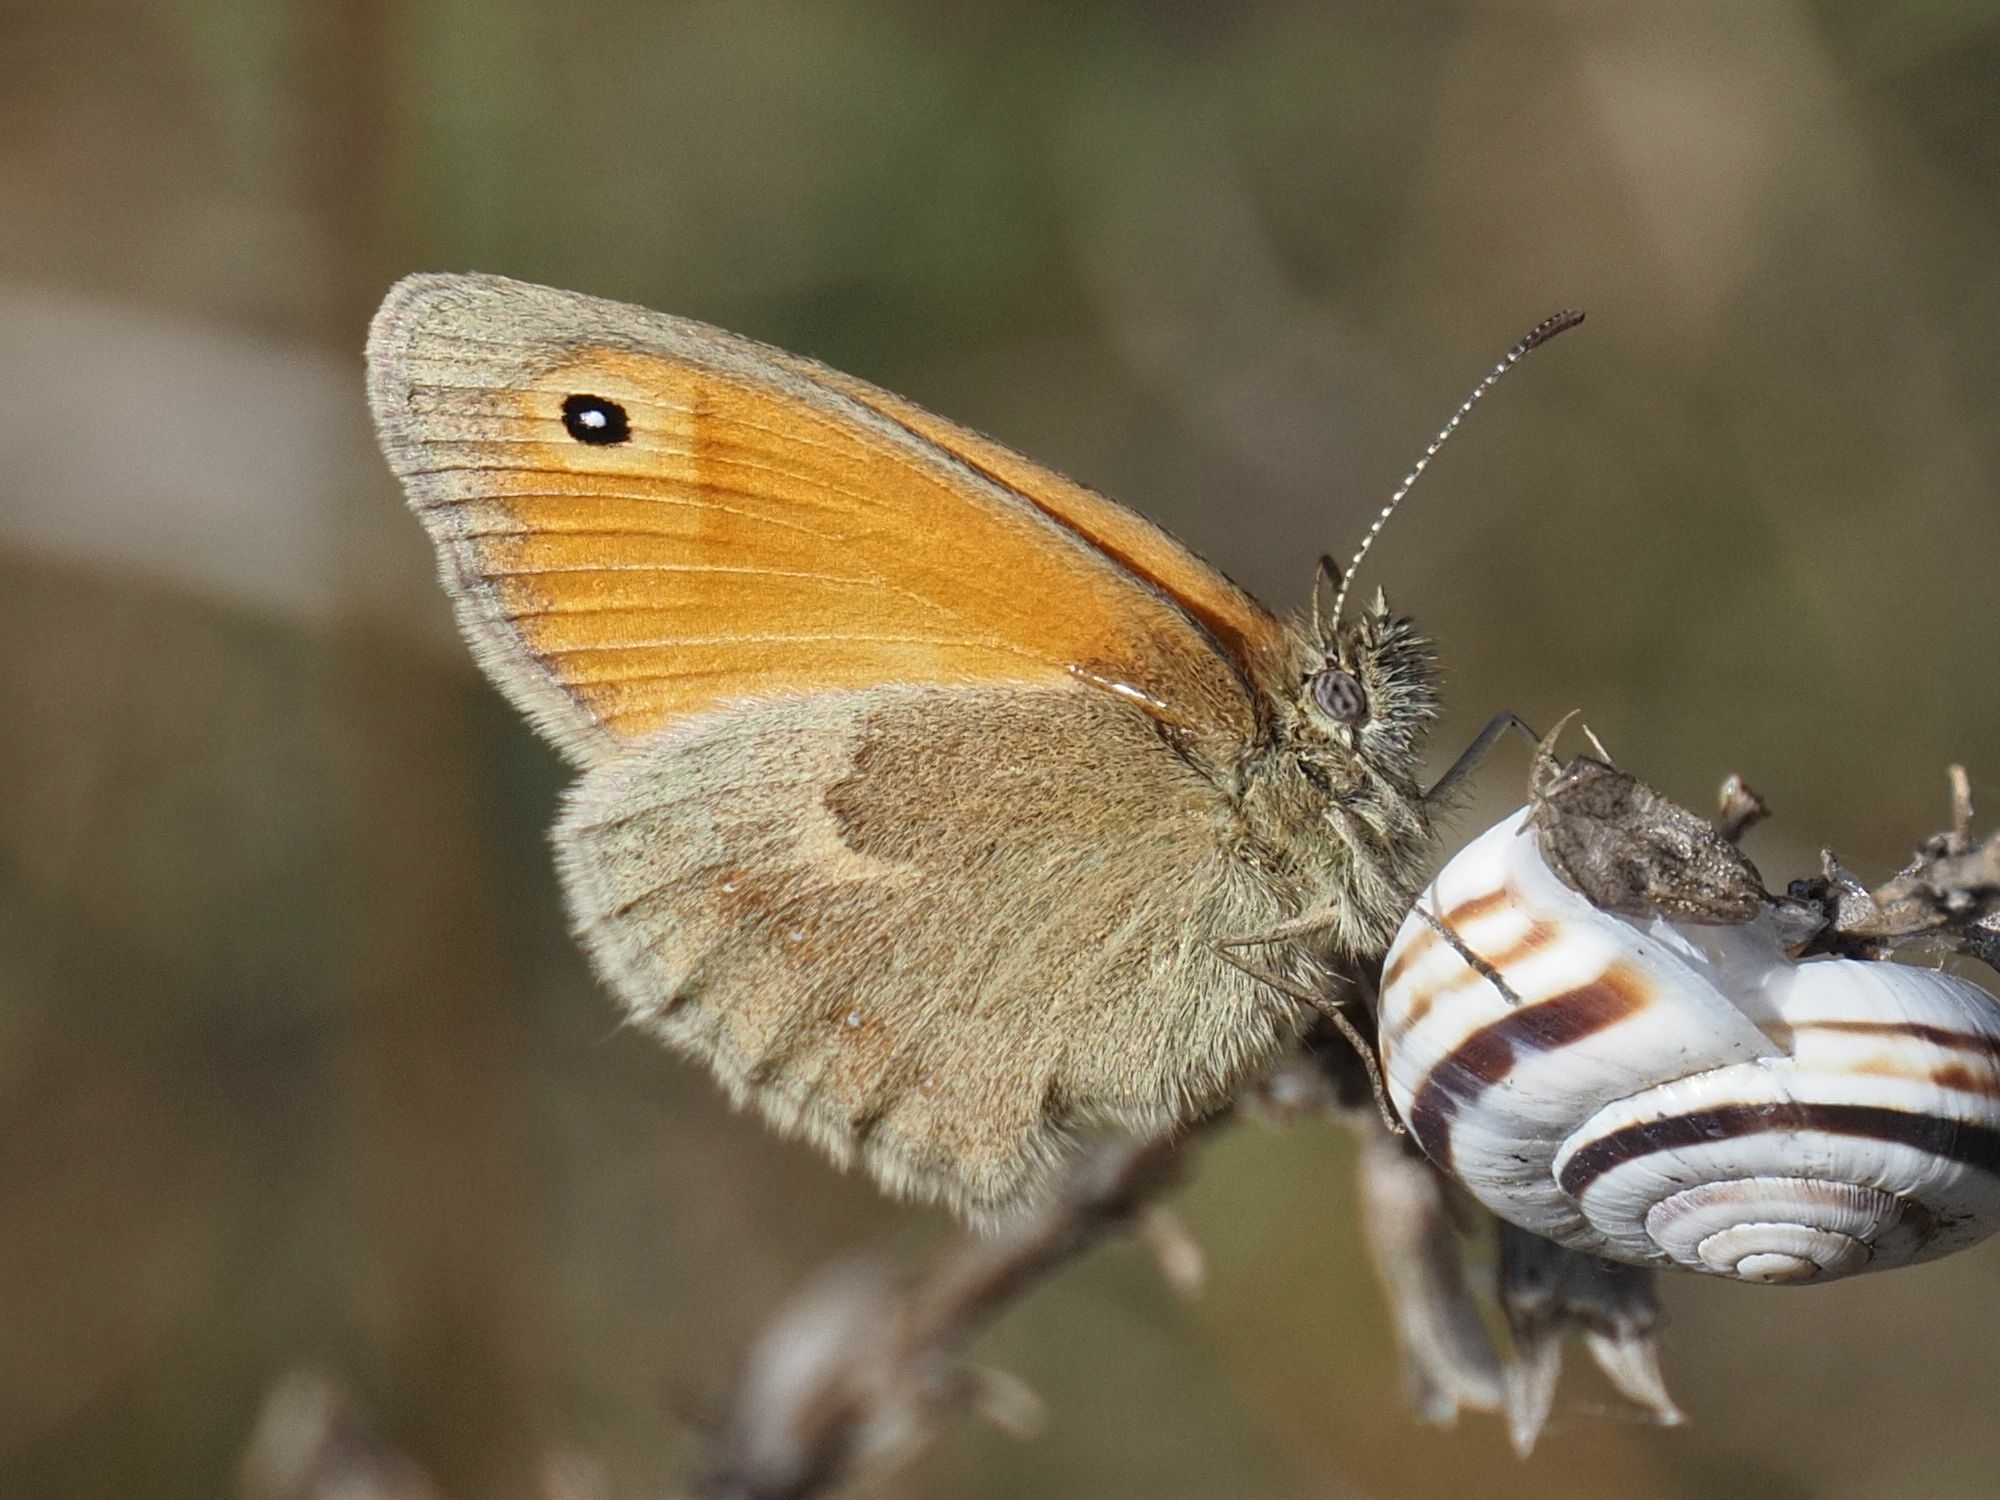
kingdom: Animalia
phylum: Arthropoda
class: Insecta
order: Lepidoptera
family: Nymphalidae
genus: Coenonympha
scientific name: Coenonympha pamphilus
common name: Small heath
